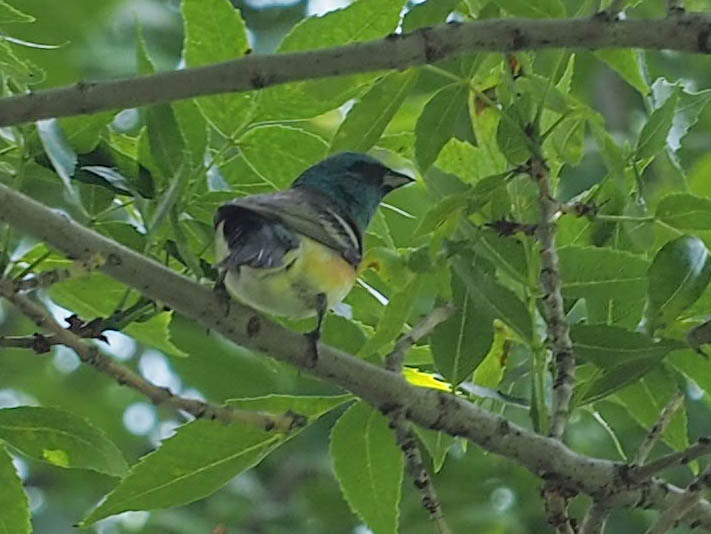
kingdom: Animalia
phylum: Chordata
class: Aves
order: Passeriformes
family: Cardinalidae
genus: Passerina
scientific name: Passerina amoena
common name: Lazuli bunting
